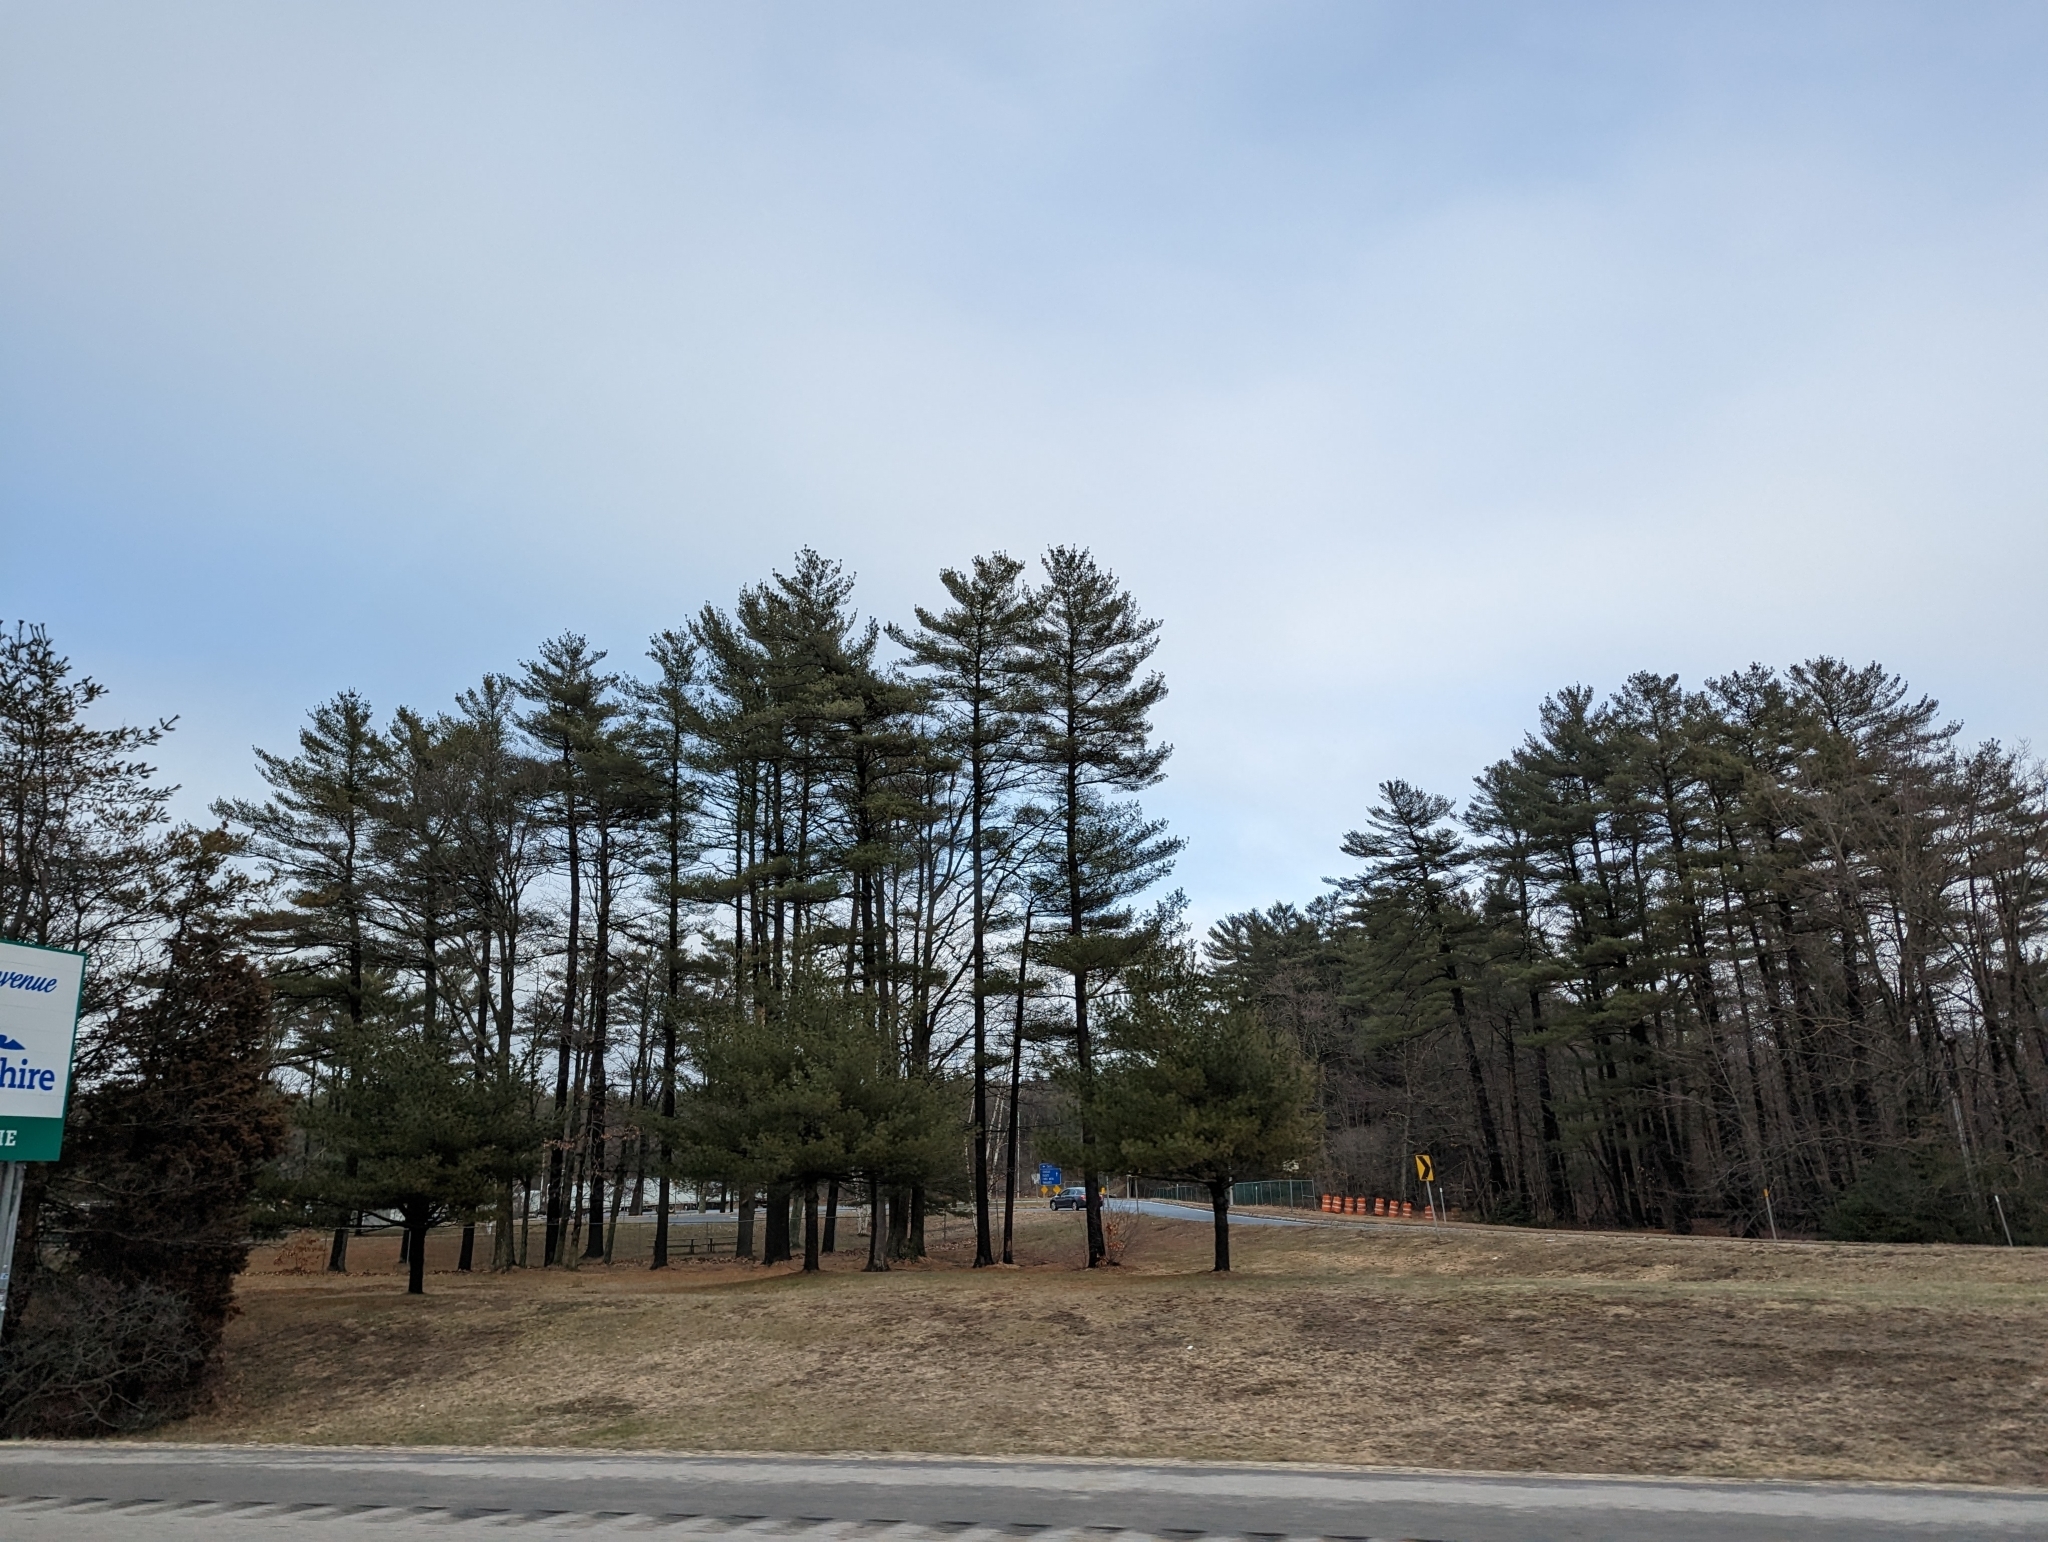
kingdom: Plantae
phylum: Tracheophyta
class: Pinopsida
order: Pinales
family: Pinaceae
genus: Pinus
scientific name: Pinus strobus
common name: Weymouth pine
